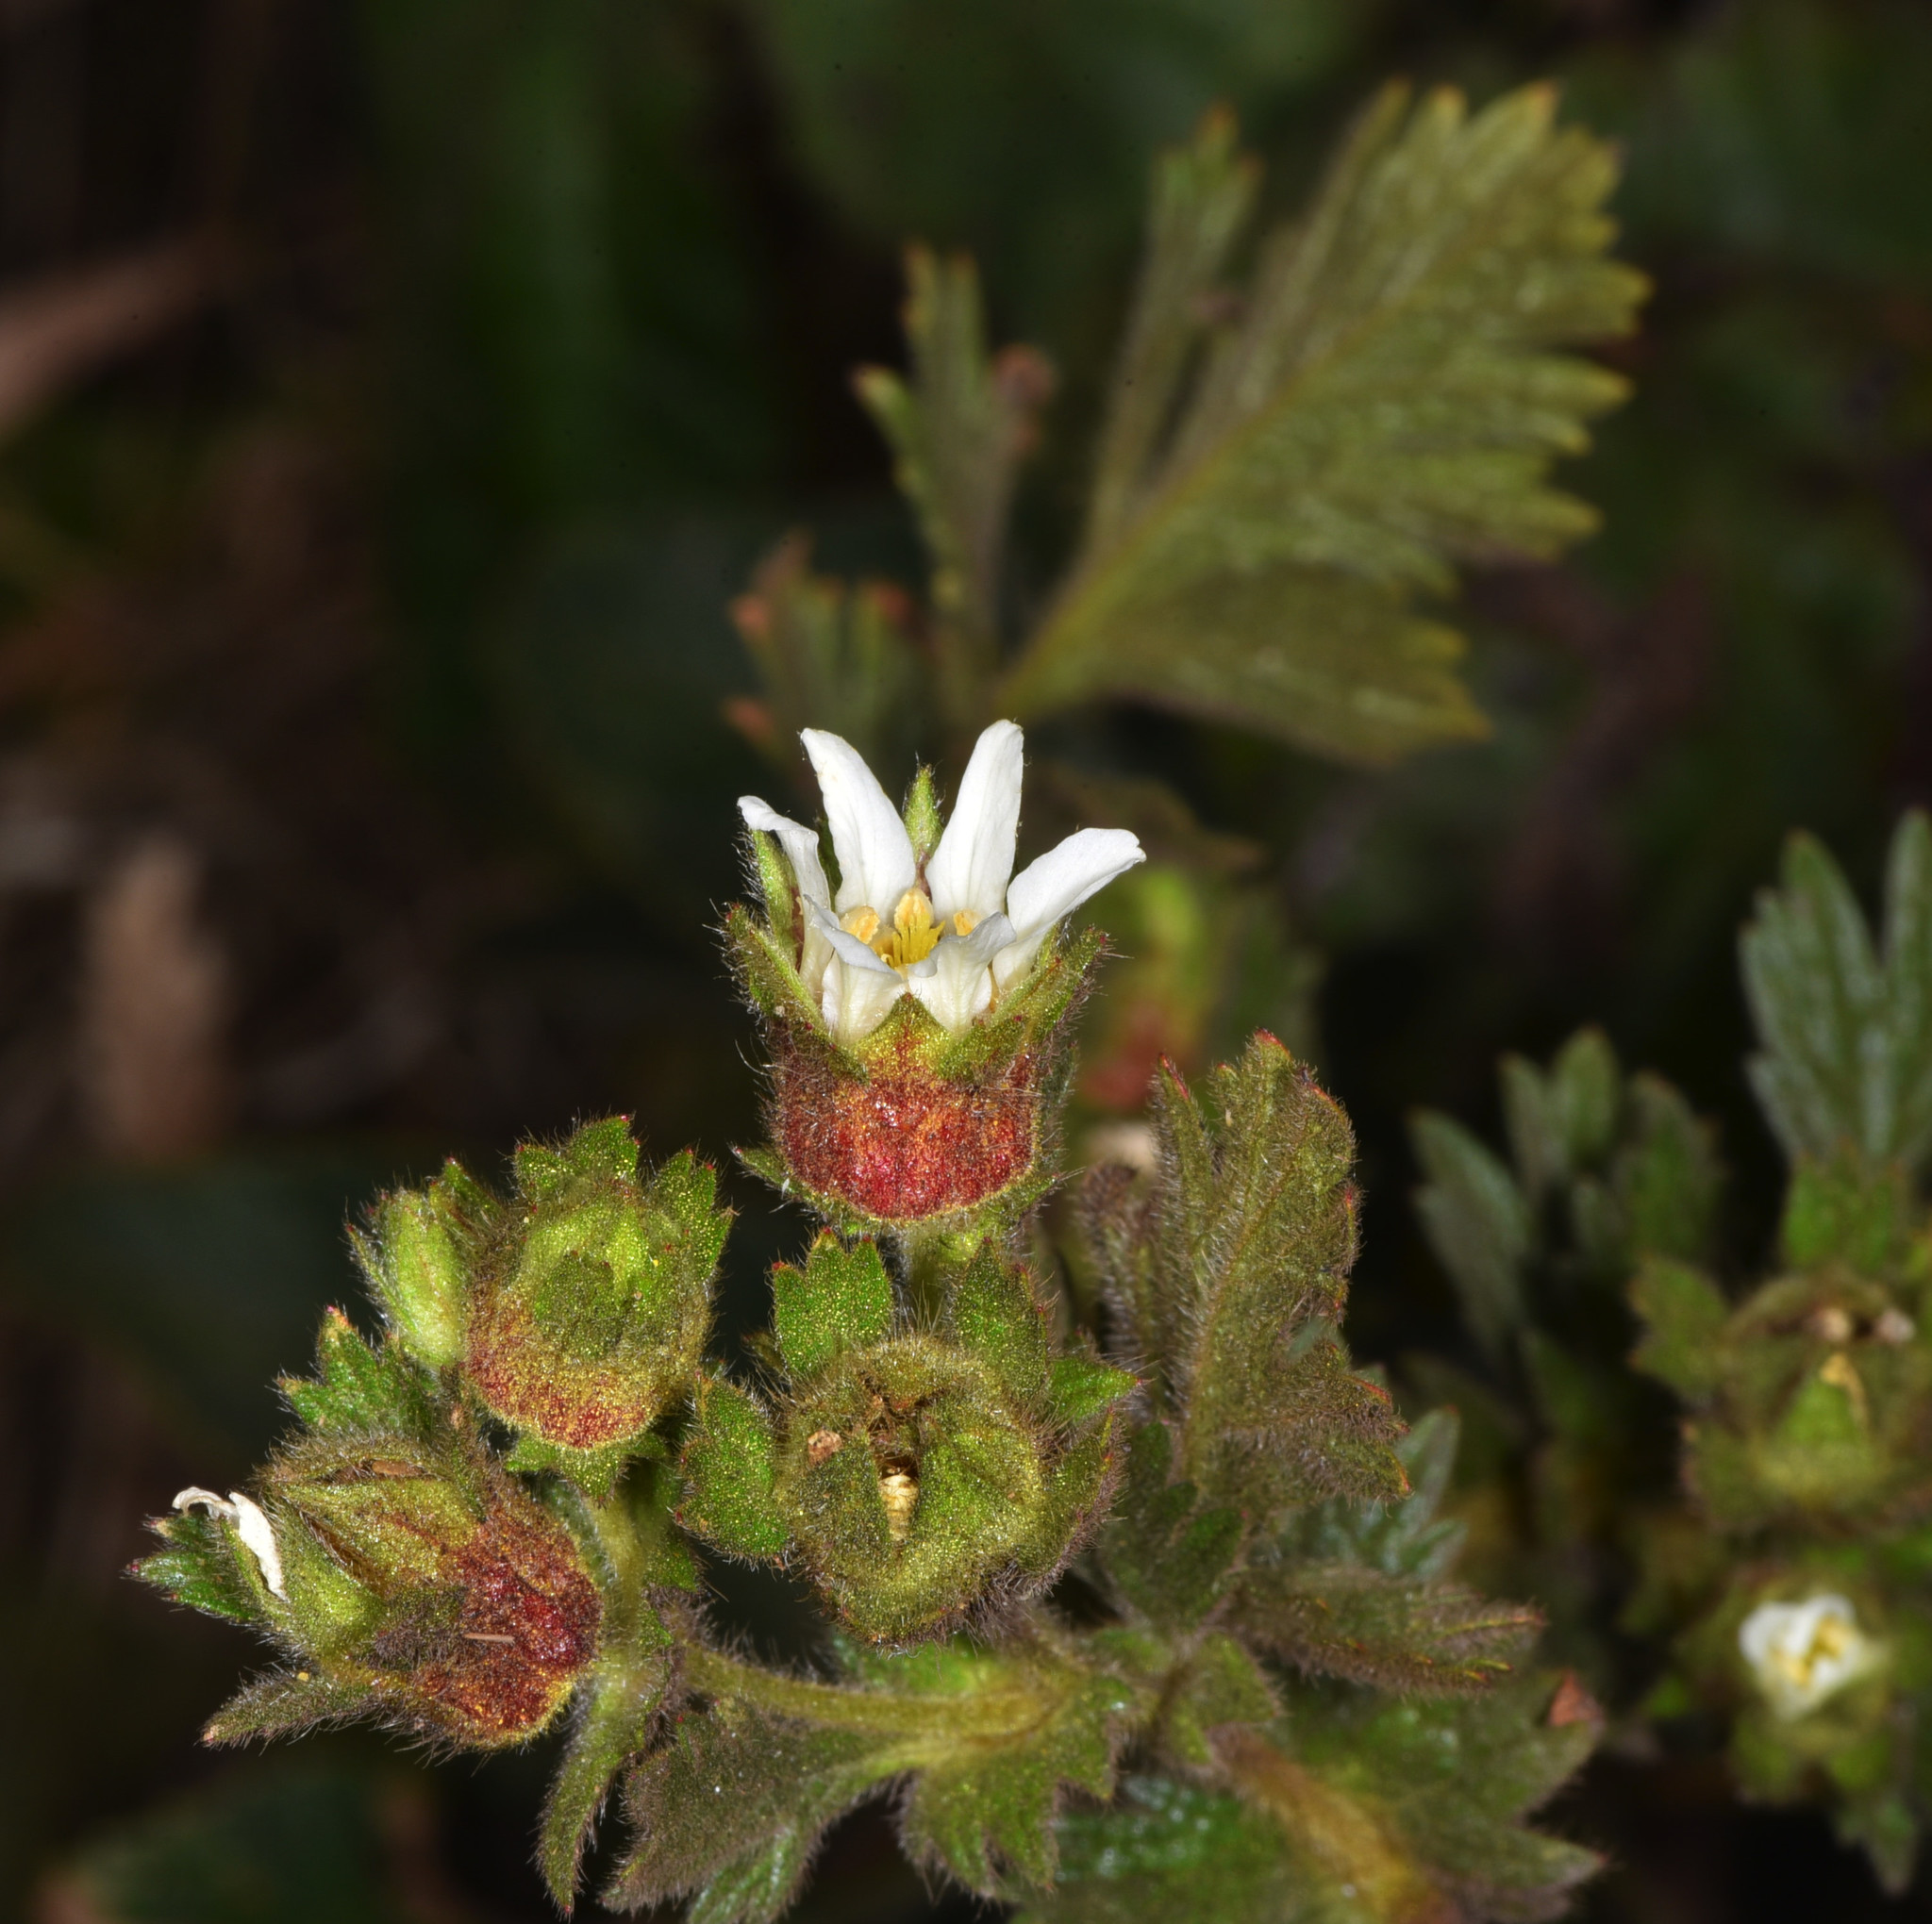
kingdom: Plantae
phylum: Tracheophyta
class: Magnoliopsida
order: Rosales
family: Rosaceae
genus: Potentilla
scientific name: Potentilla californica
